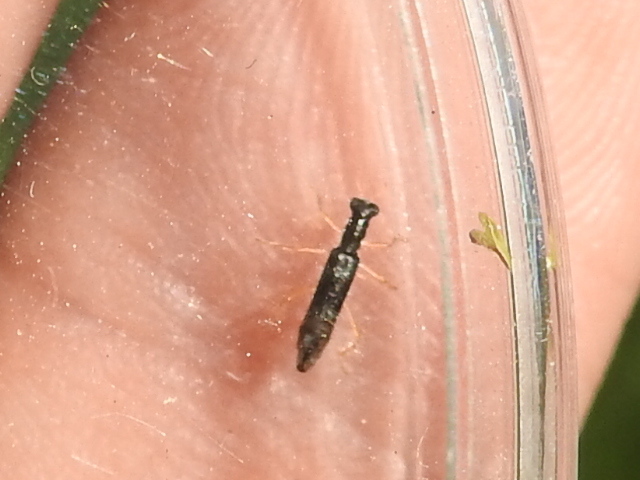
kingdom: Animalia
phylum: Arthropoda
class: Insecta
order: Coleoptera
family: Cleridae
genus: Isohydnocera
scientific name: Isohydnocera curtipennis
